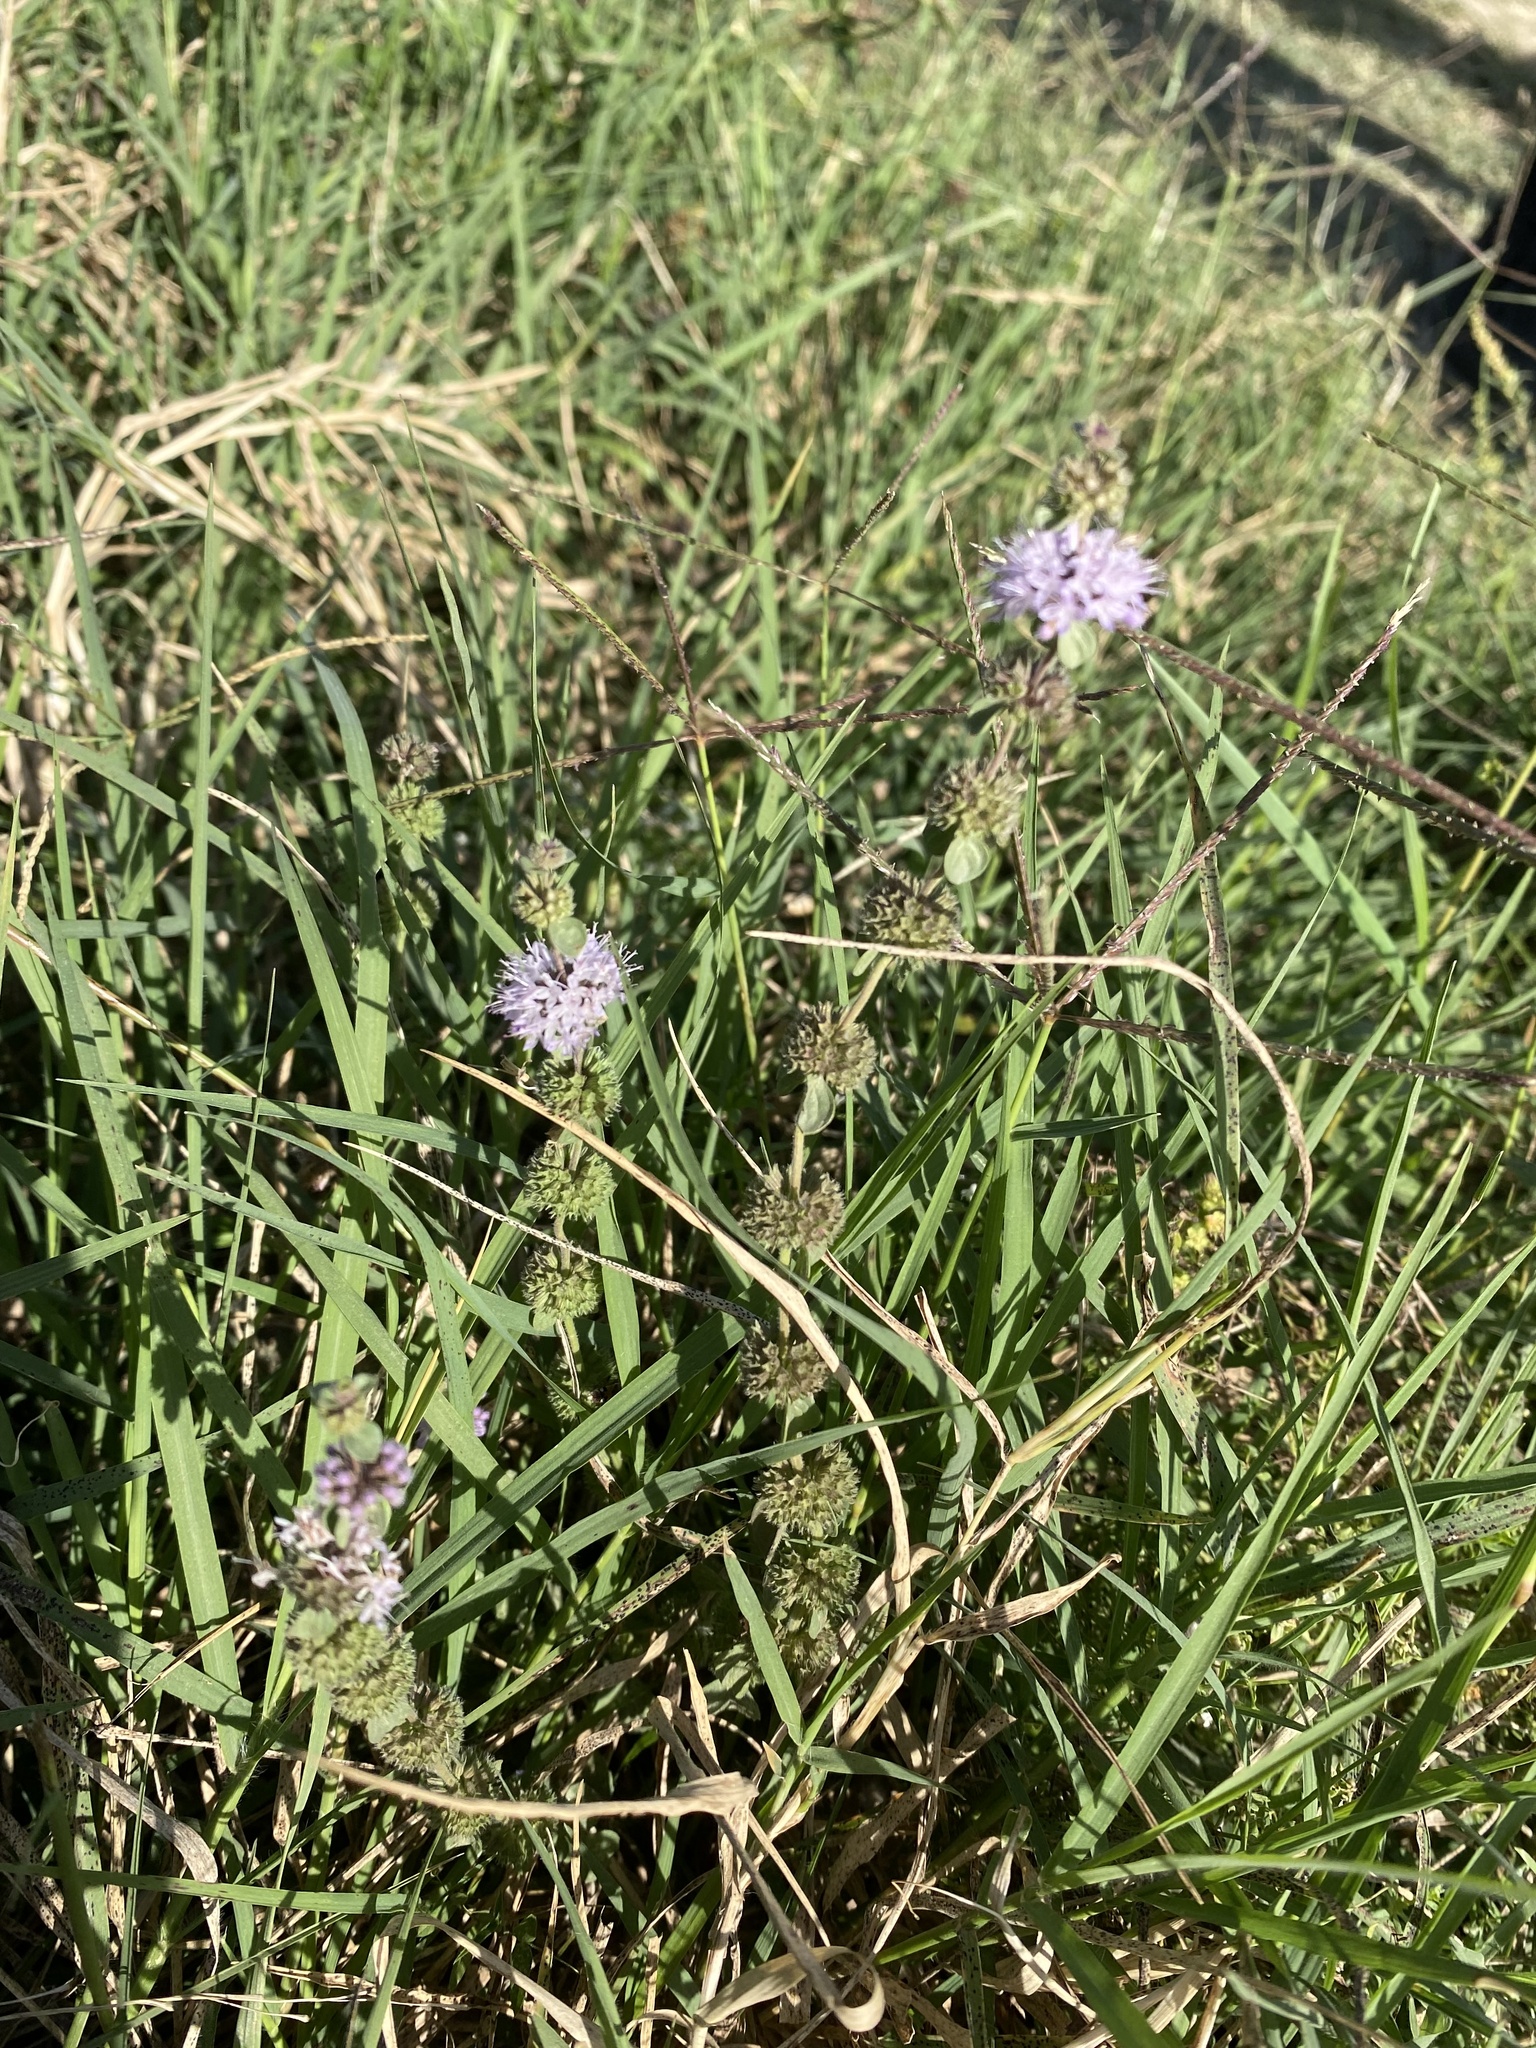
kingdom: Plantae
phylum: Tracheophyta
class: Magnoliopsida
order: Lamiales
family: Lamiaceae
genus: Mentha
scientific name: Mentha pulegium
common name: Pennyroyal
